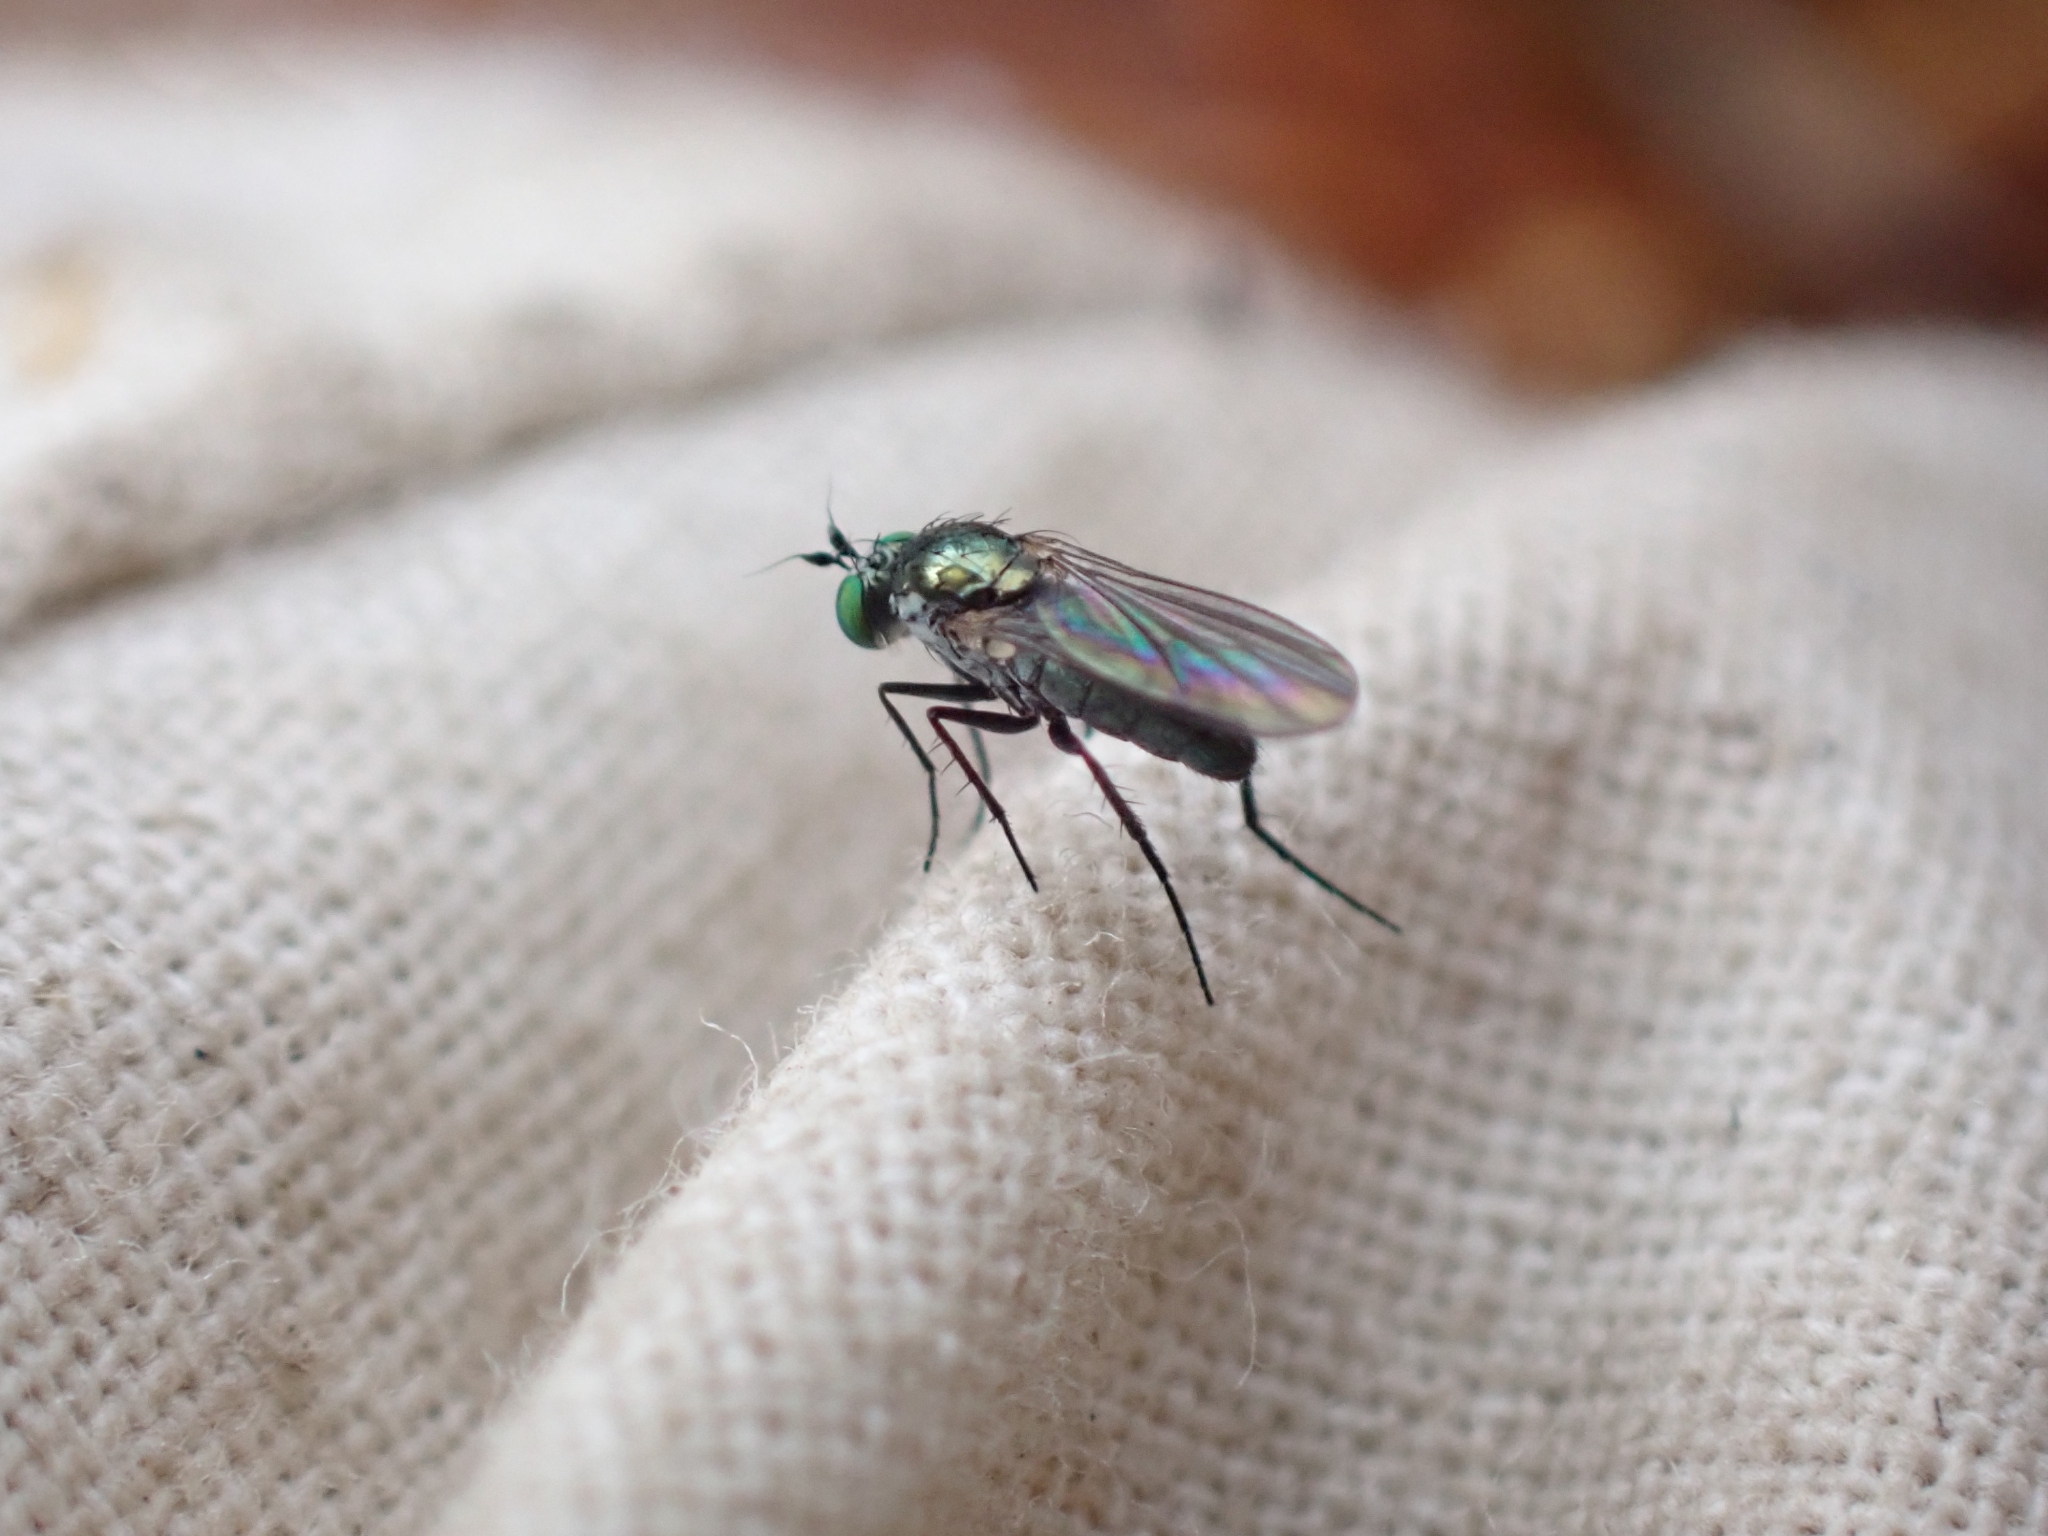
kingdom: Animalia
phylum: Arthropoda
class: Insecta
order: Diptera
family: Dolichopodidae
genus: Hercostomus
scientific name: Hercostomus unicolor
